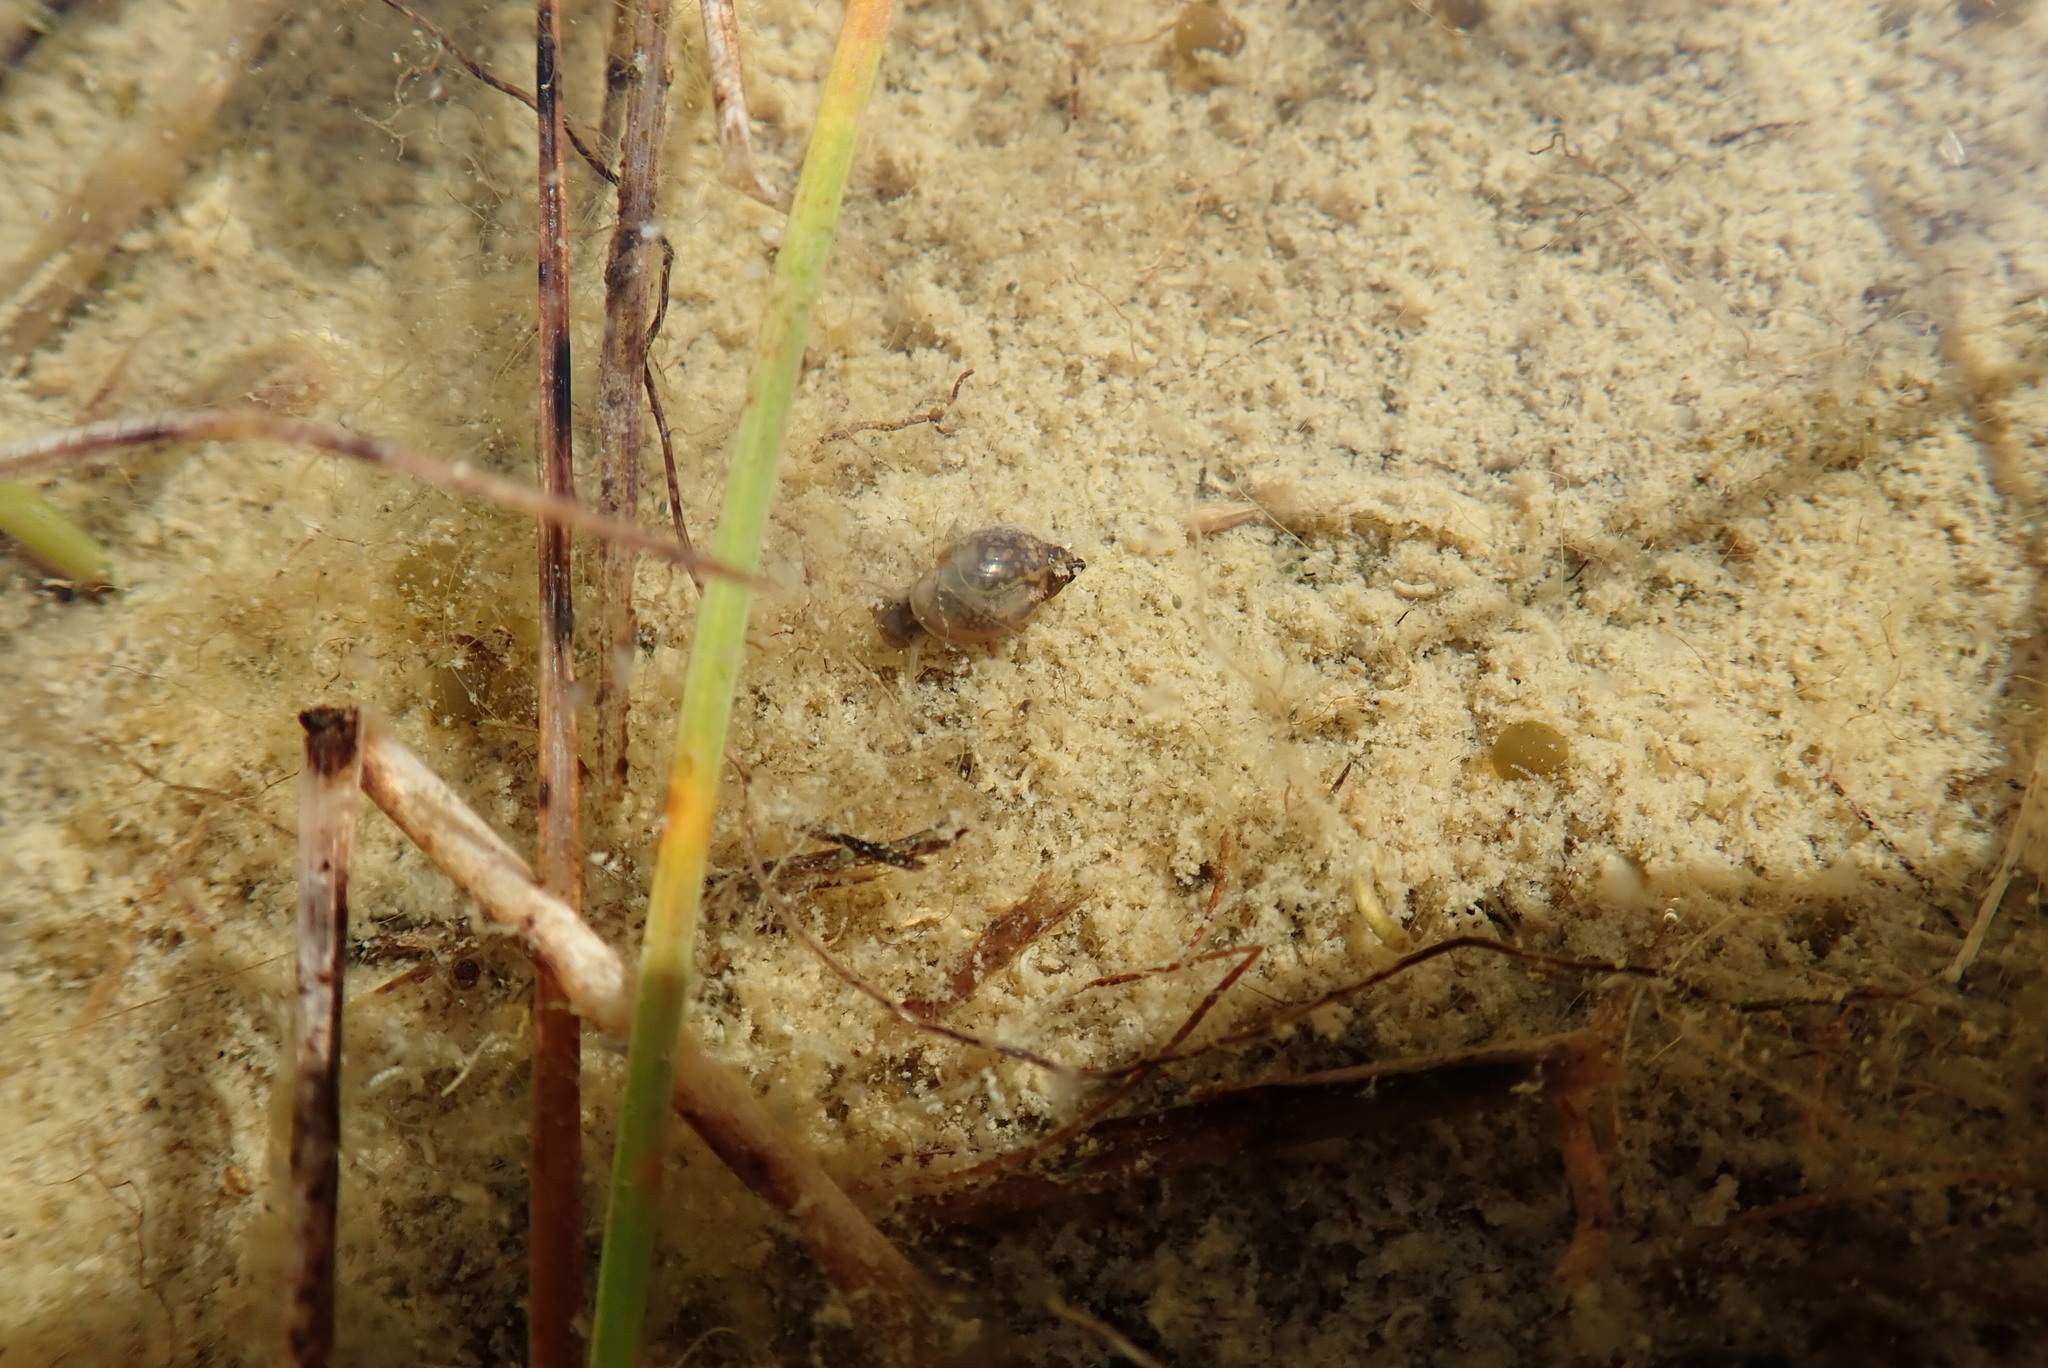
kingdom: Animalia
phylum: Mollusca
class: Gastropoda
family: Physidae
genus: Physella
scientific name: Physella acuta
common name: European physa
